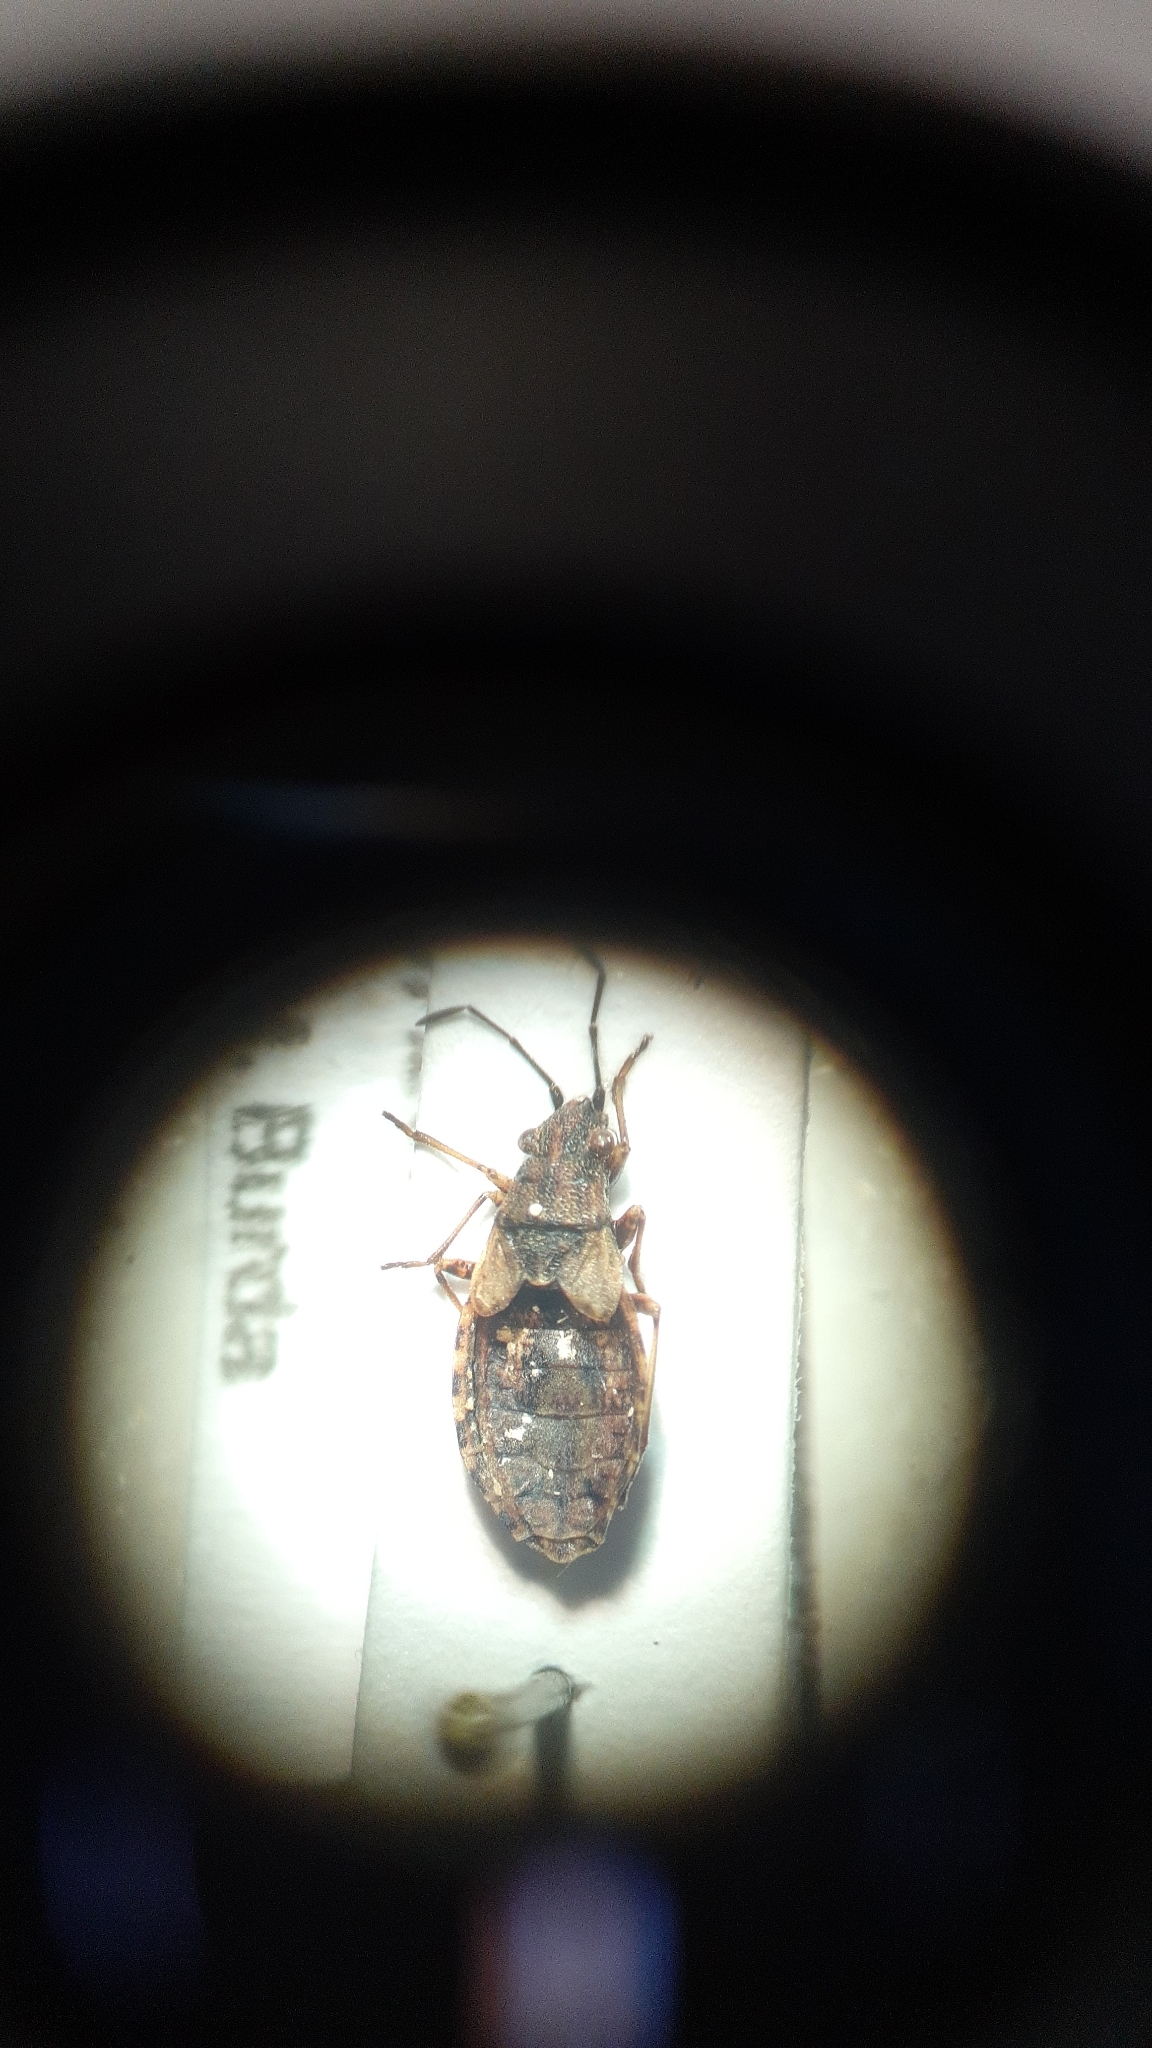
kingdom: Animalia
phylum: Arthropoda
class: Insecta
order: Hemiptera
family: Lygaeidae
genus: Nithecus
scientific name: Nithecus jacobaeae
